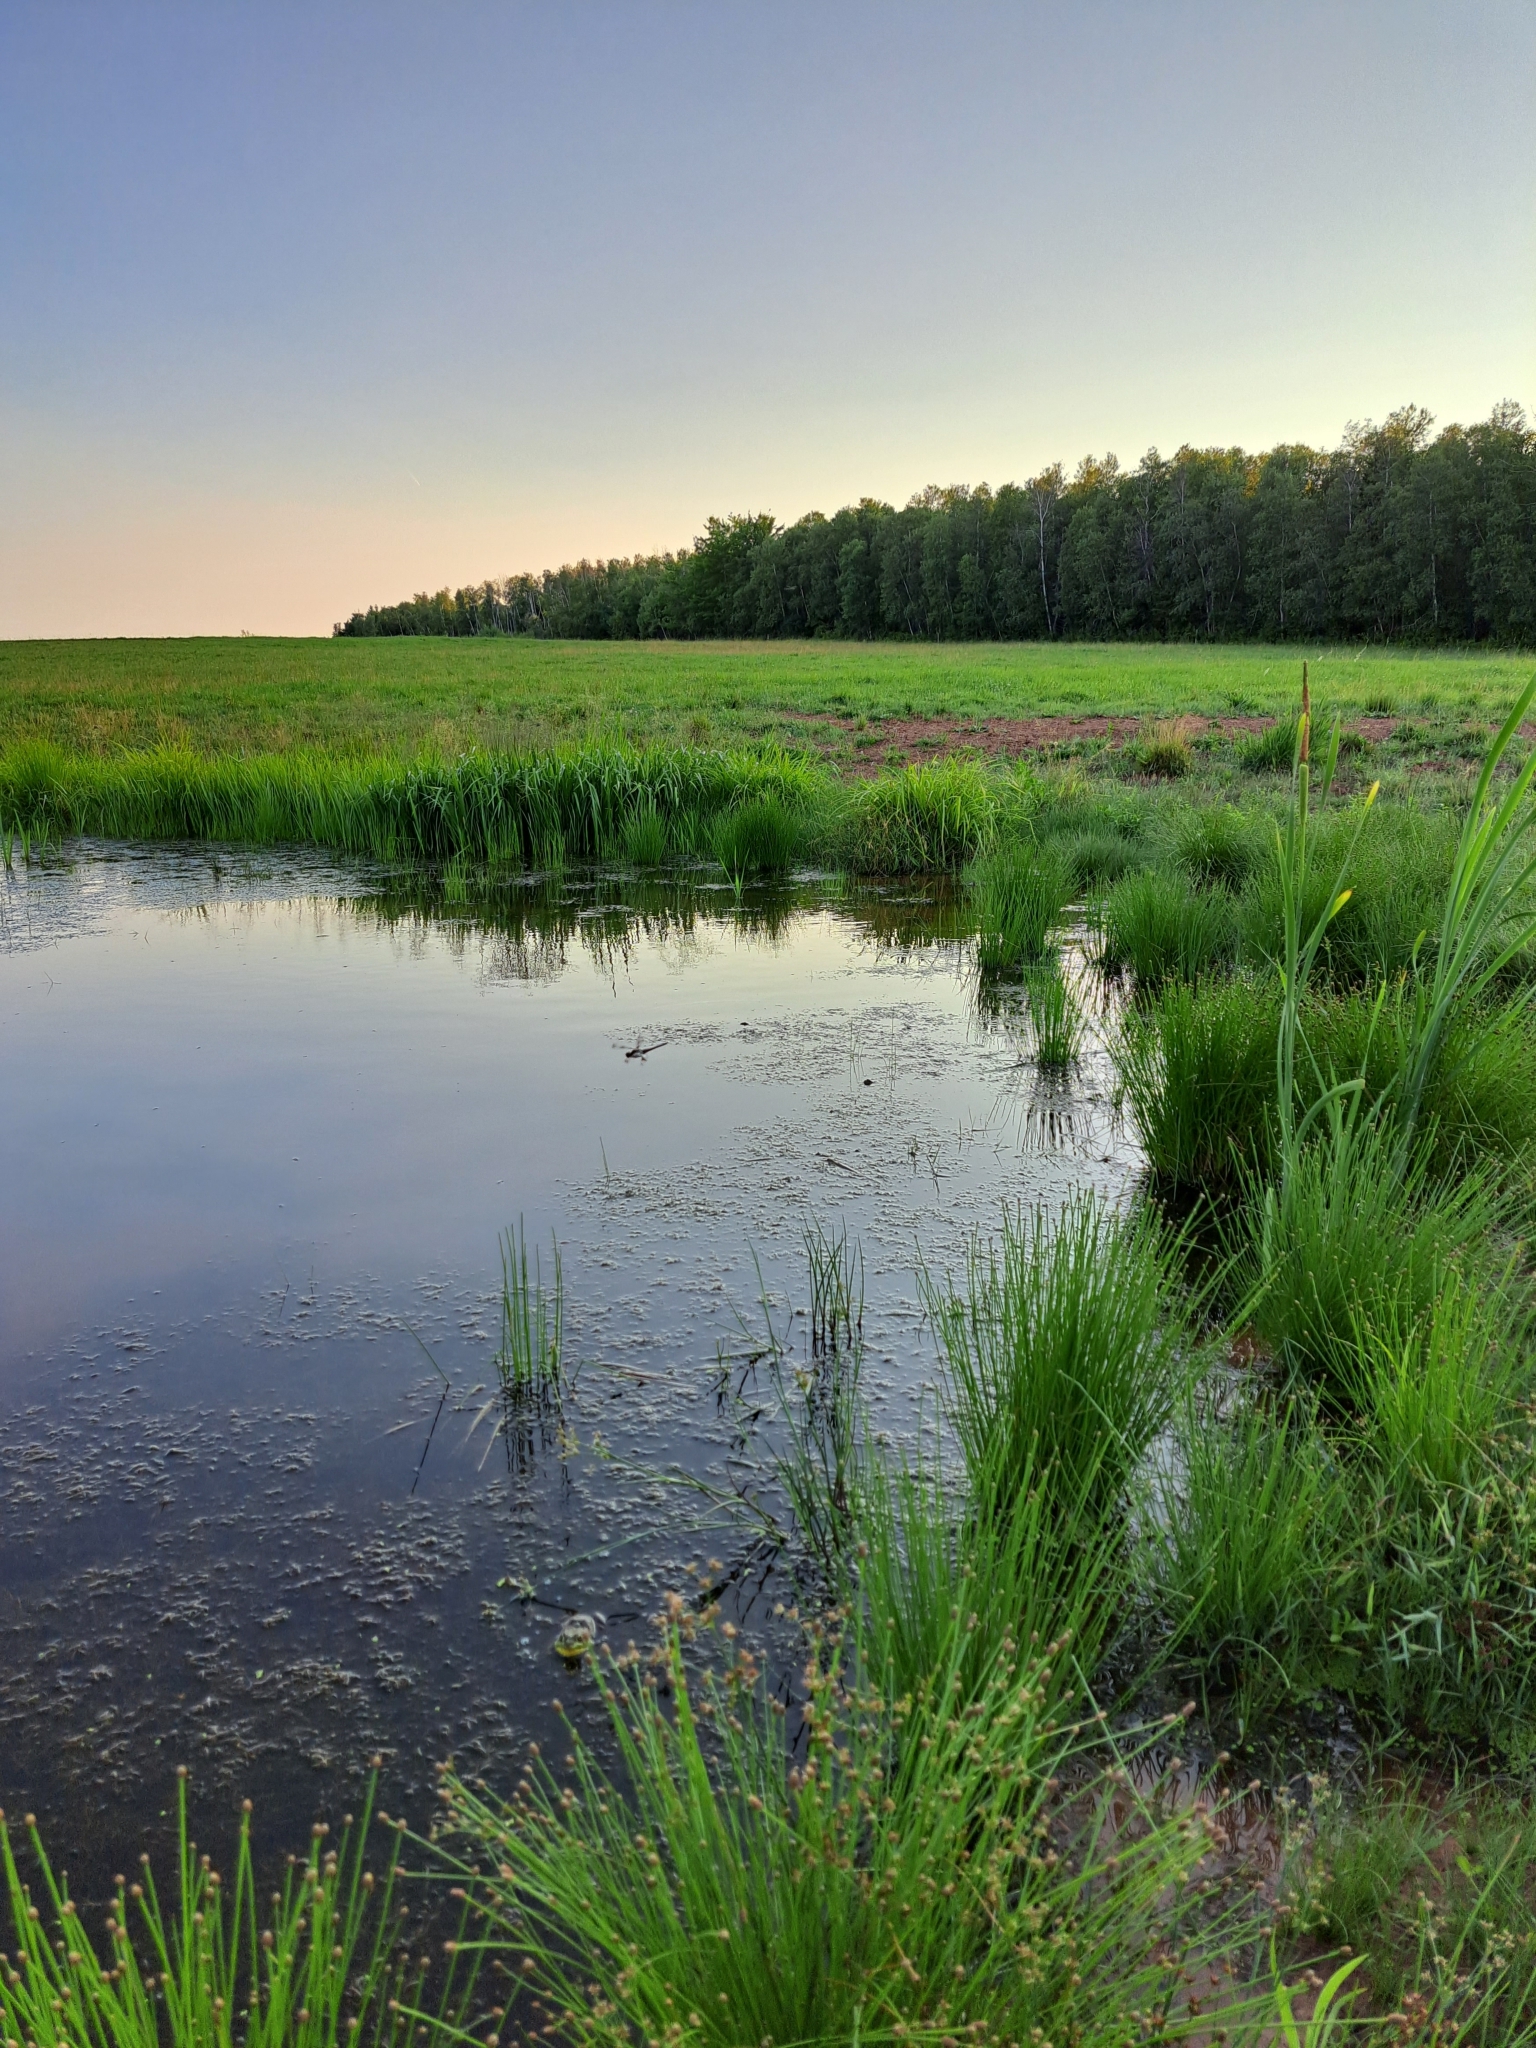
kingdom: Animalia
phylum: Arthropoda
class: Insecta
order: Odonata
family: Libellulidae
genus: Libellula
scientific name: Libellula pulchella
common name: Twelve-spotted skimmer
